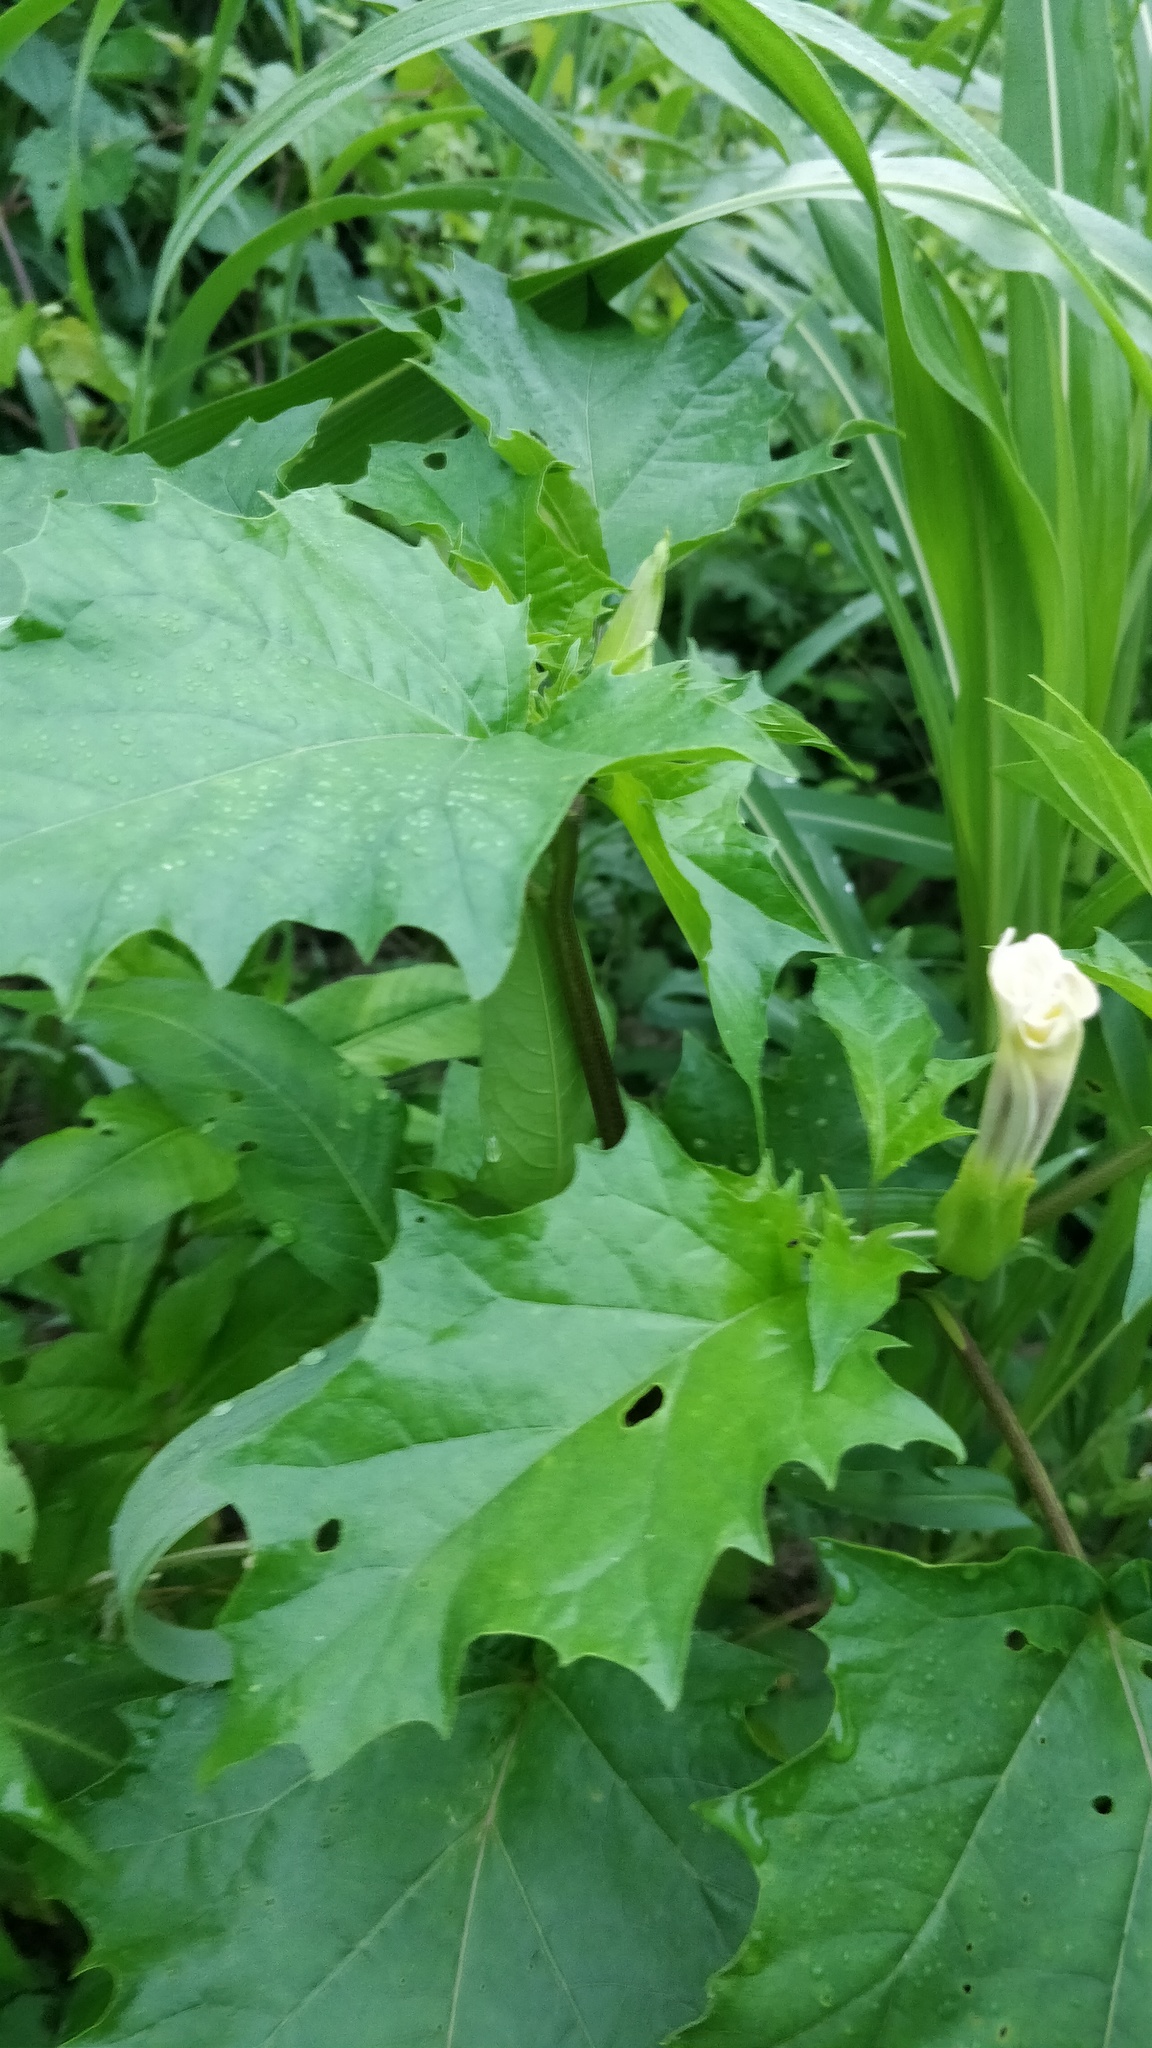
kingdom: Plantae
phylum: Tracheophyta
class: Magnoliopsida
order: Solanales
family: Solanaceae
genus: Datura
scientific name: Datura stramonium
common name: Thorn-apple
